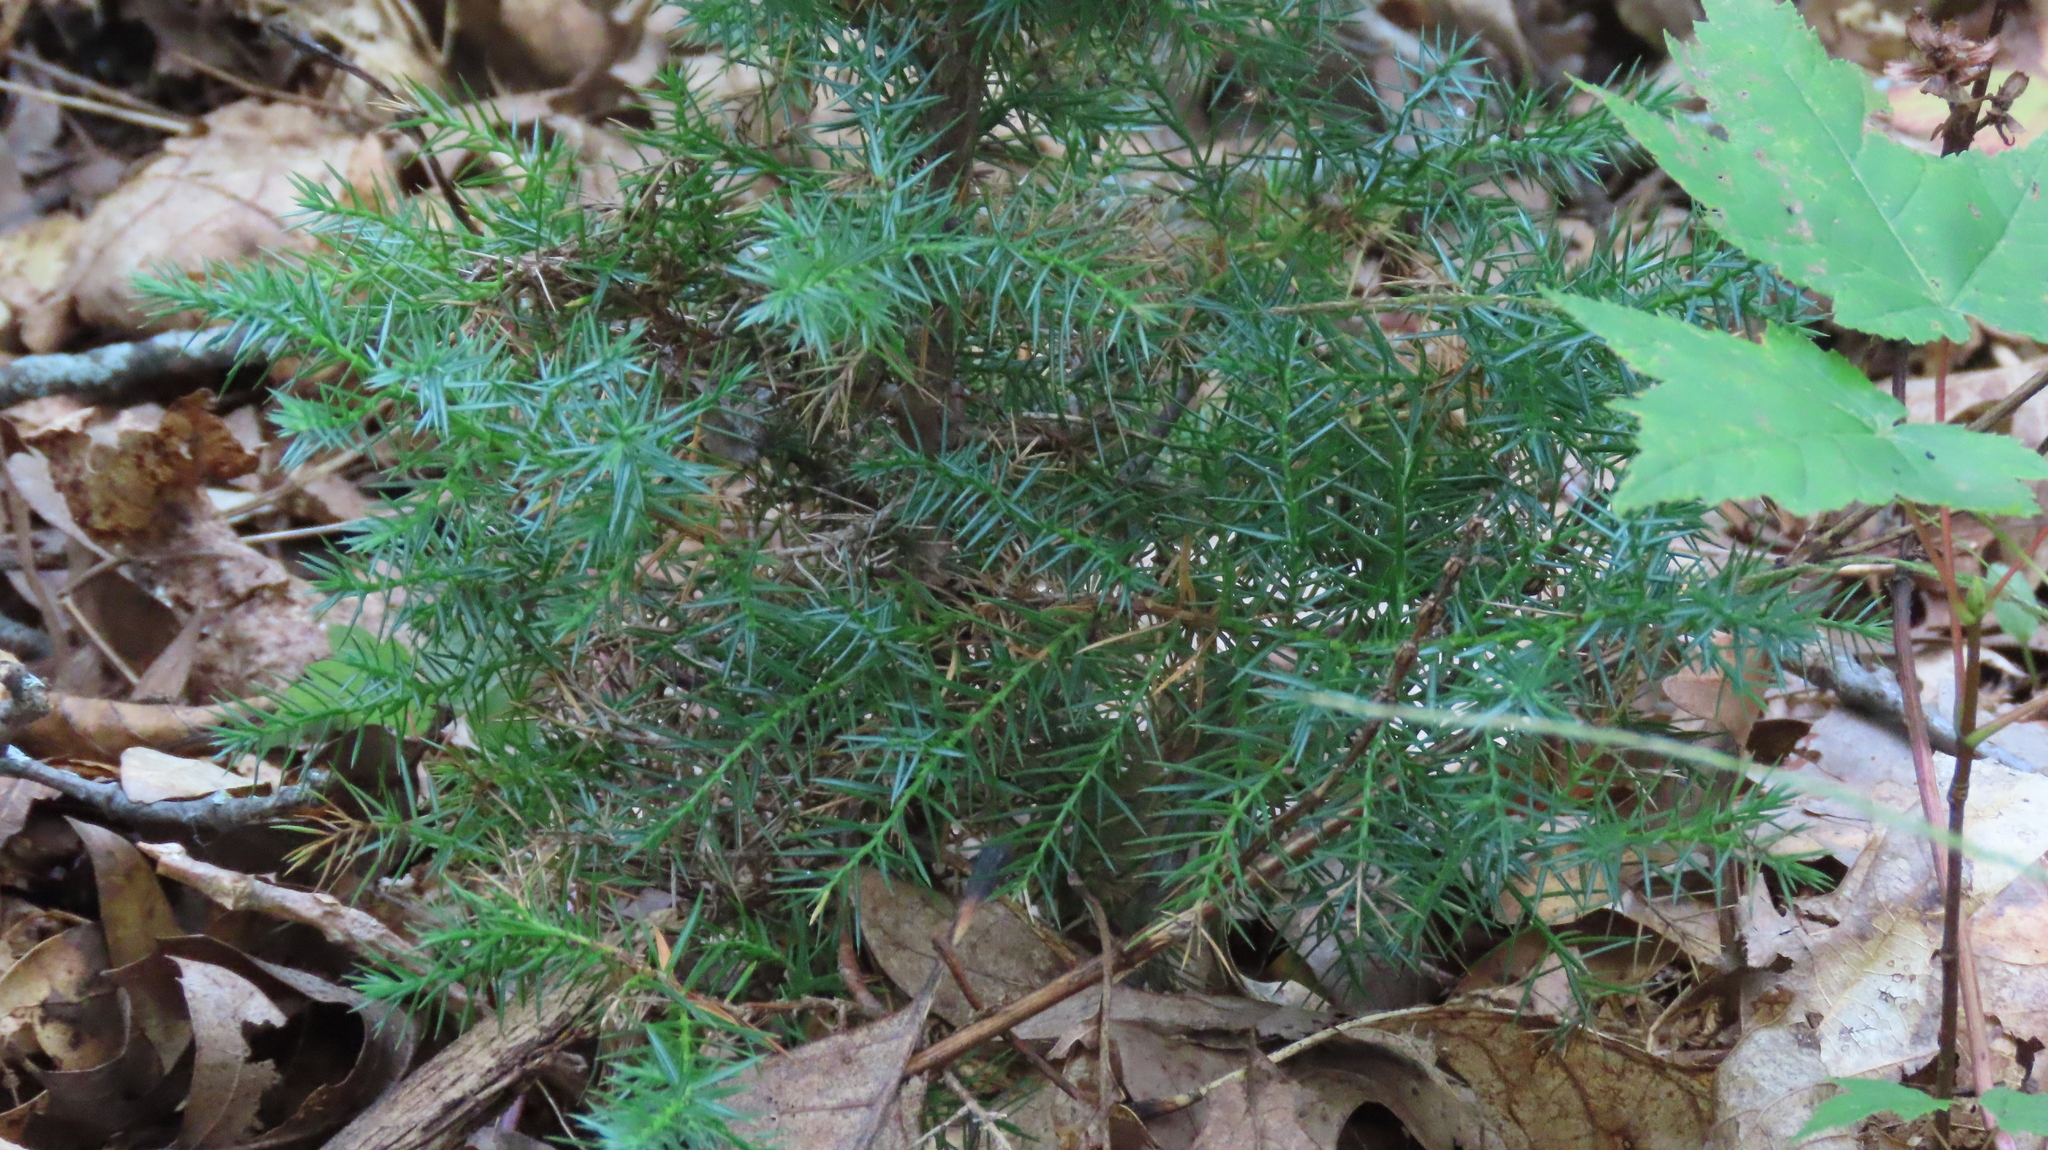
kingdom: Plantae
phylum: Tracheophyta
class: Pinopsida
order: Pinales
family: Cupressaceae
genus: Juniperus
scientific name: Juniperus virginiana
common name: Red juniper
